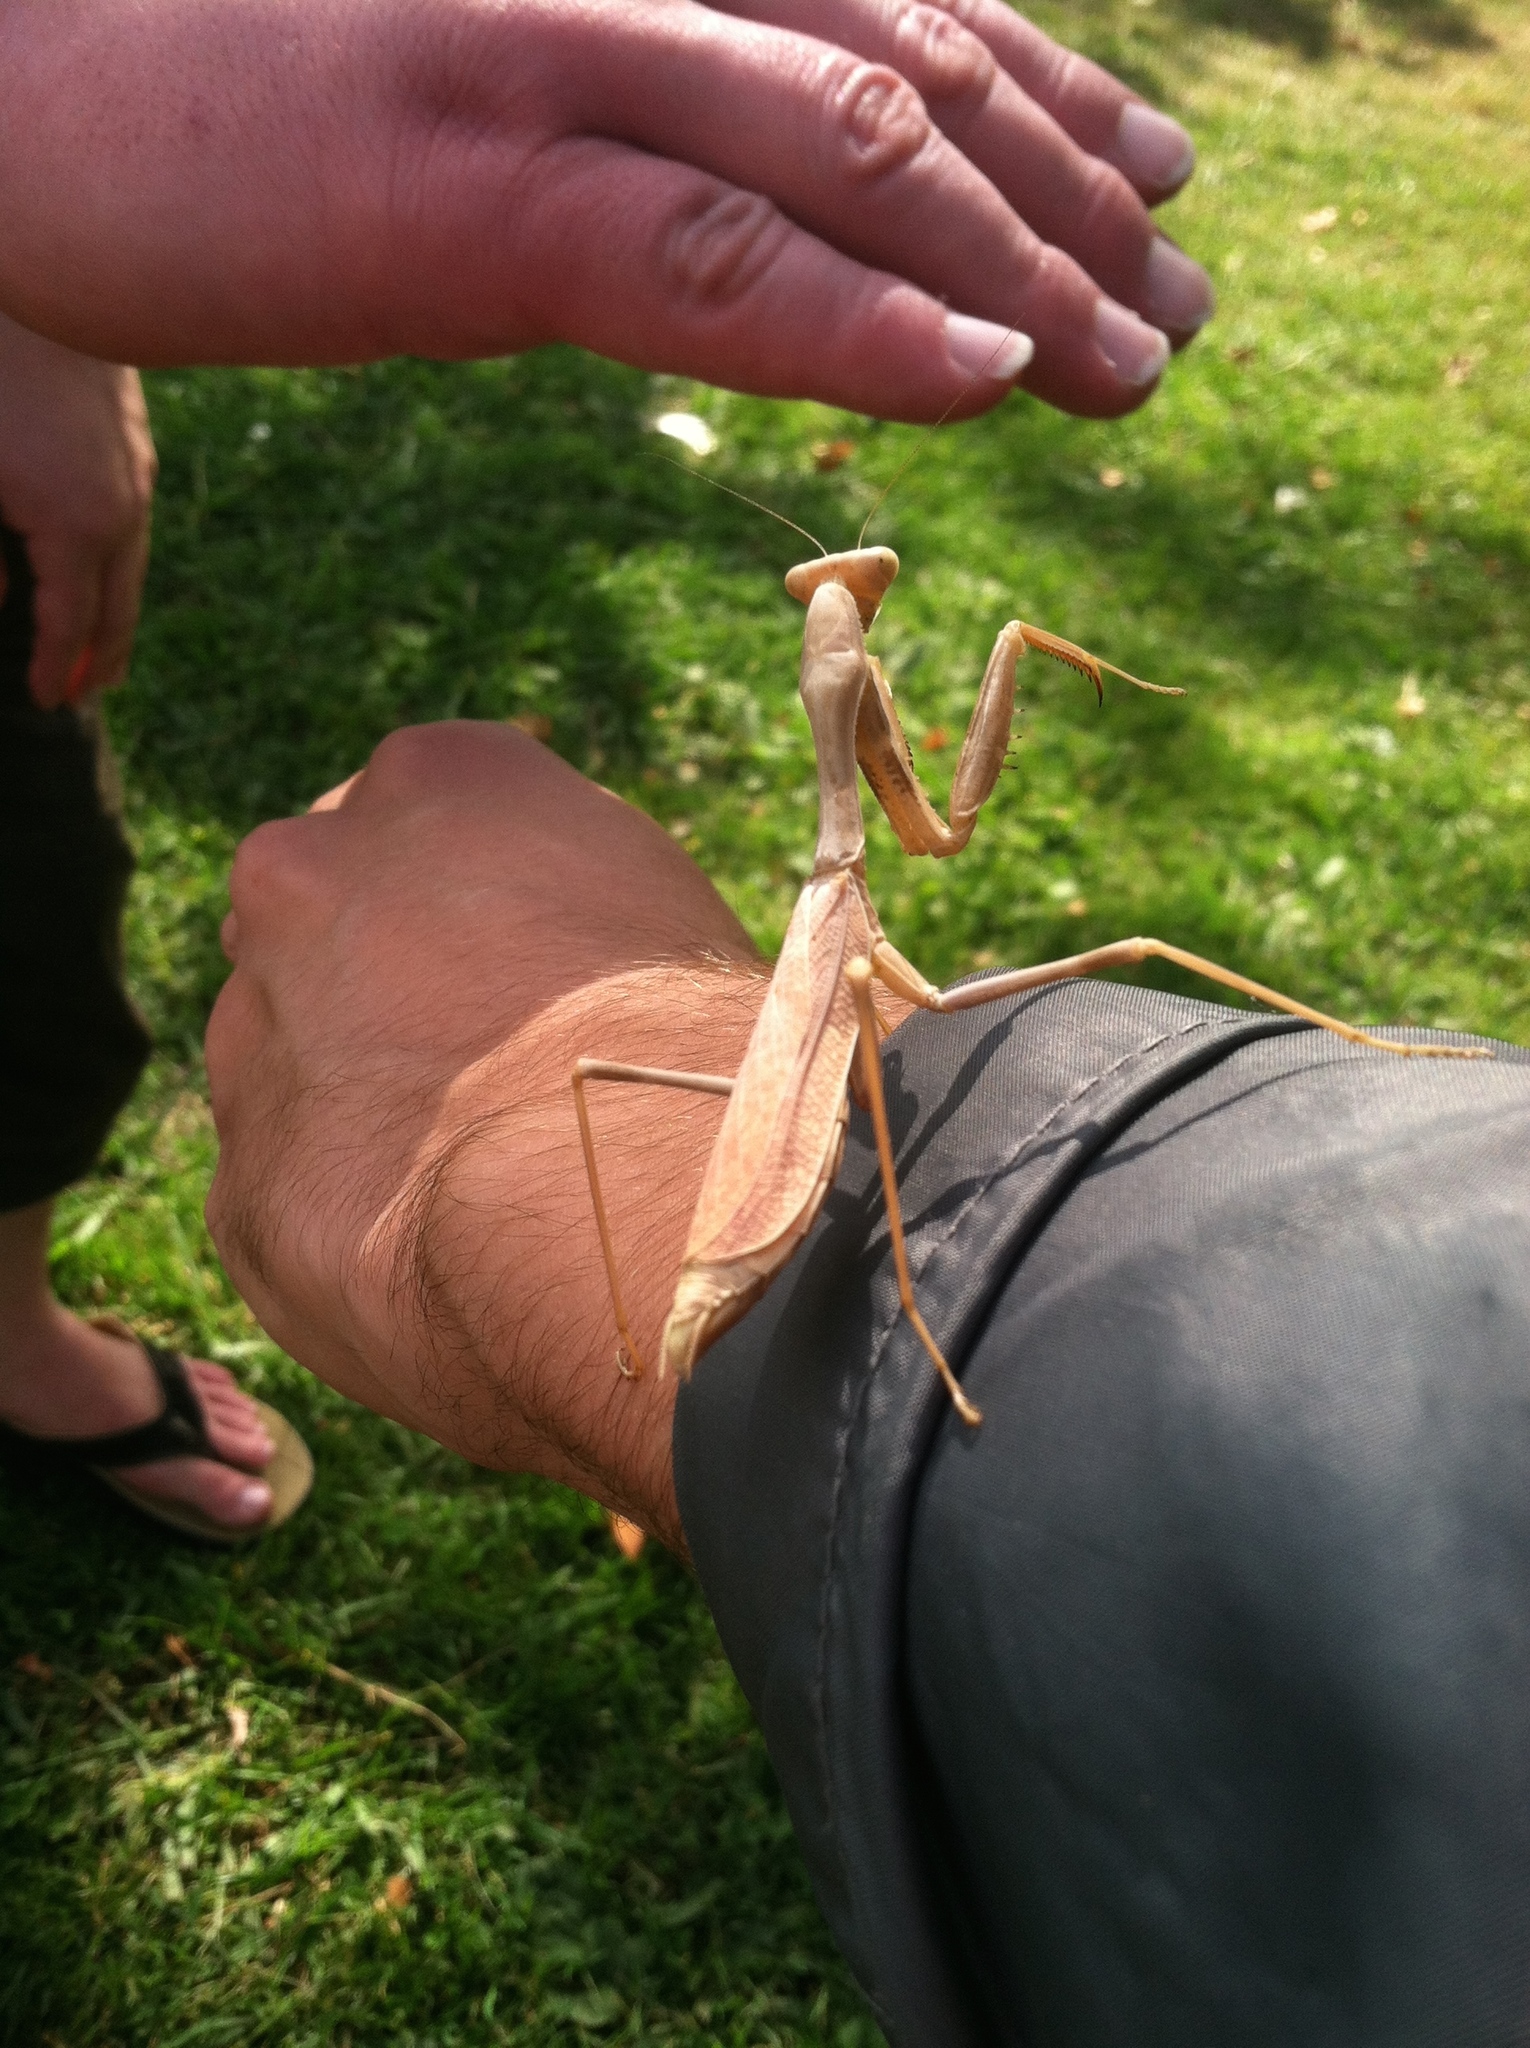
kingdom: Animalia
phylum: Arthropoda
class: Insecta
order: Mantodea
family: Mantidae
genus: Stagmomantis
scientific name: Stagmomantis limbata
